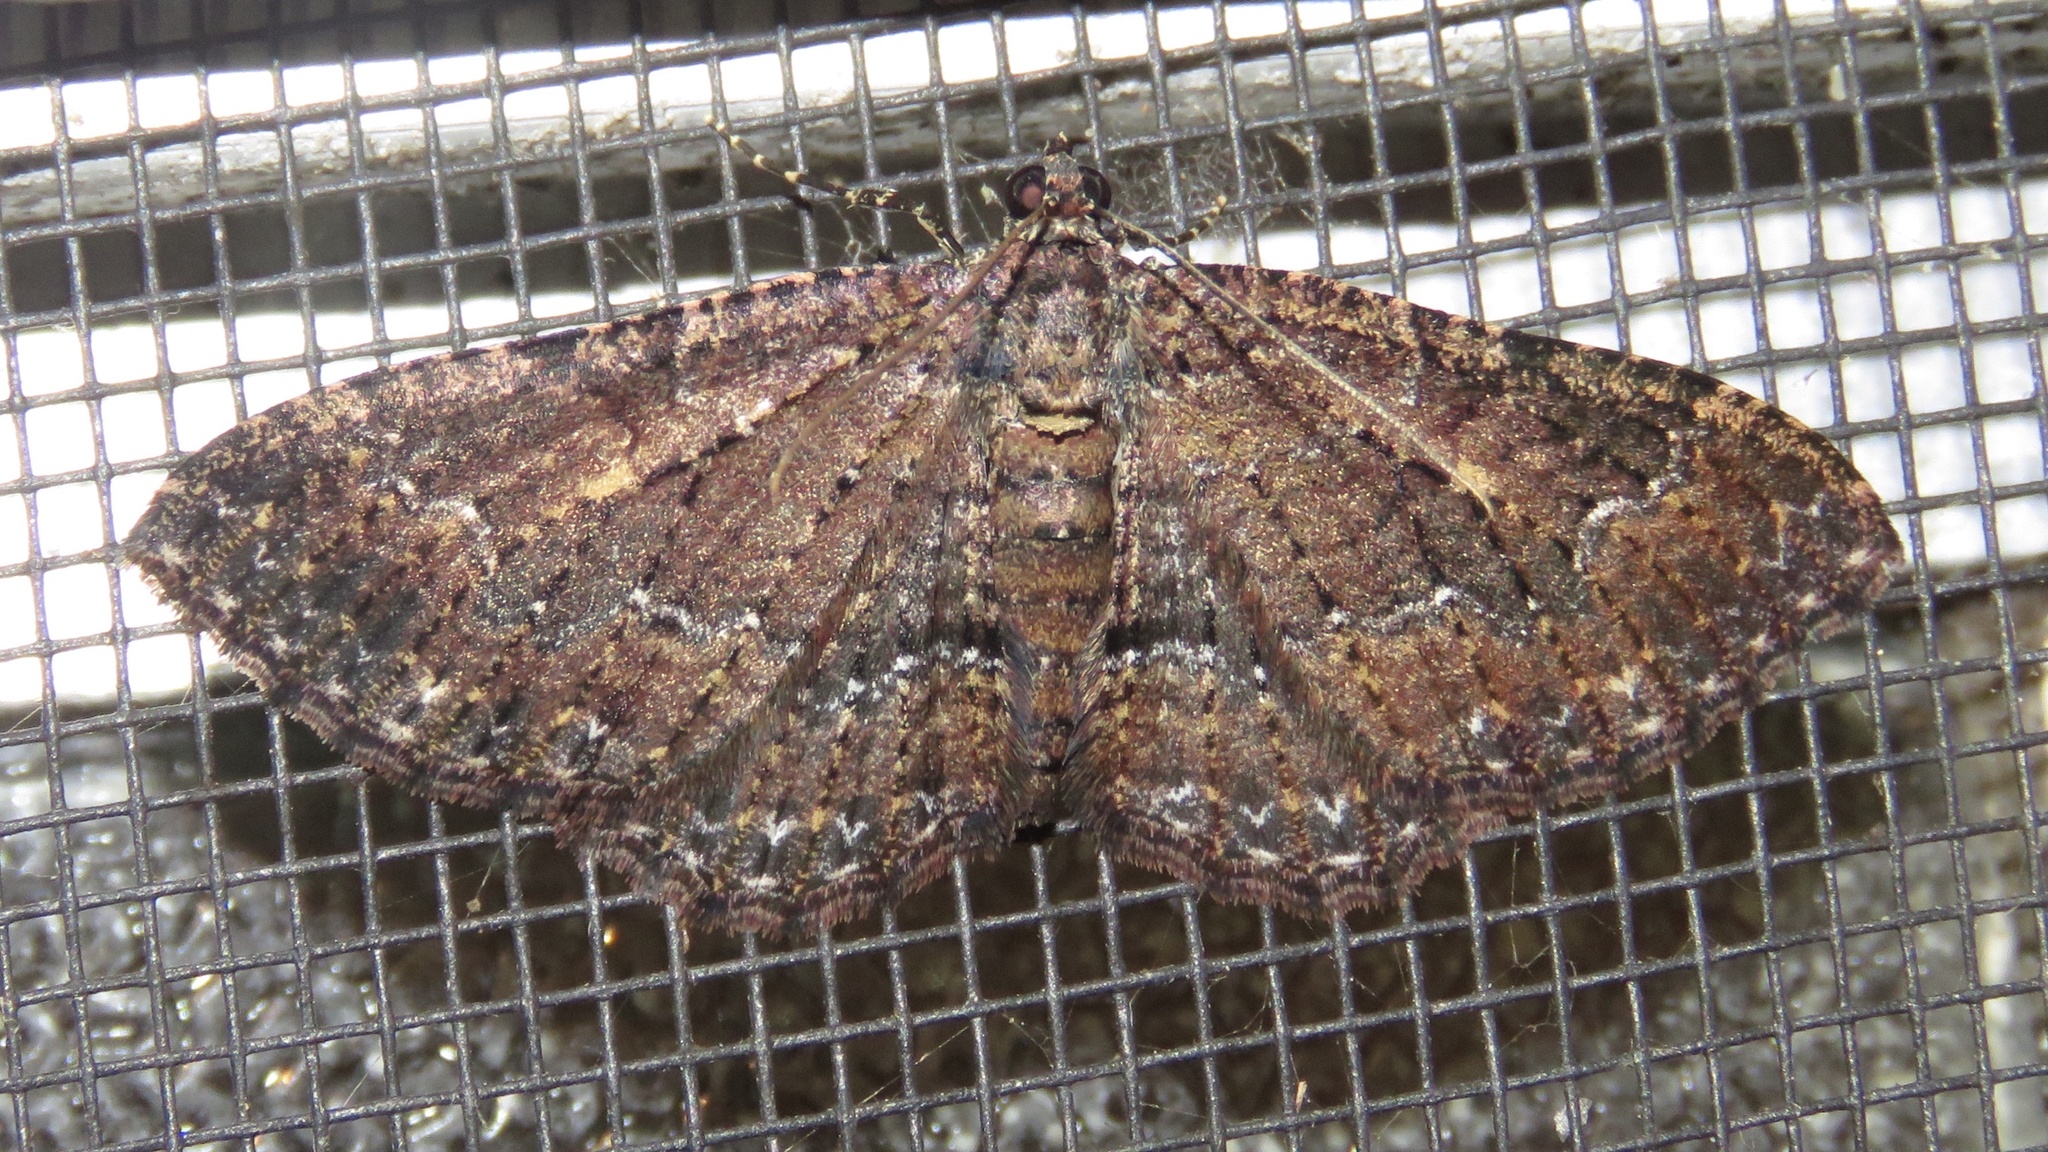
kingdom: Animalia
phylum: Arthropoda
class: Insecta
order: Lepidoptera
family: Geometridae
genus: Disclisioprocta
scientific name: Disclisioprocta stellata
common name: Somber carpet
